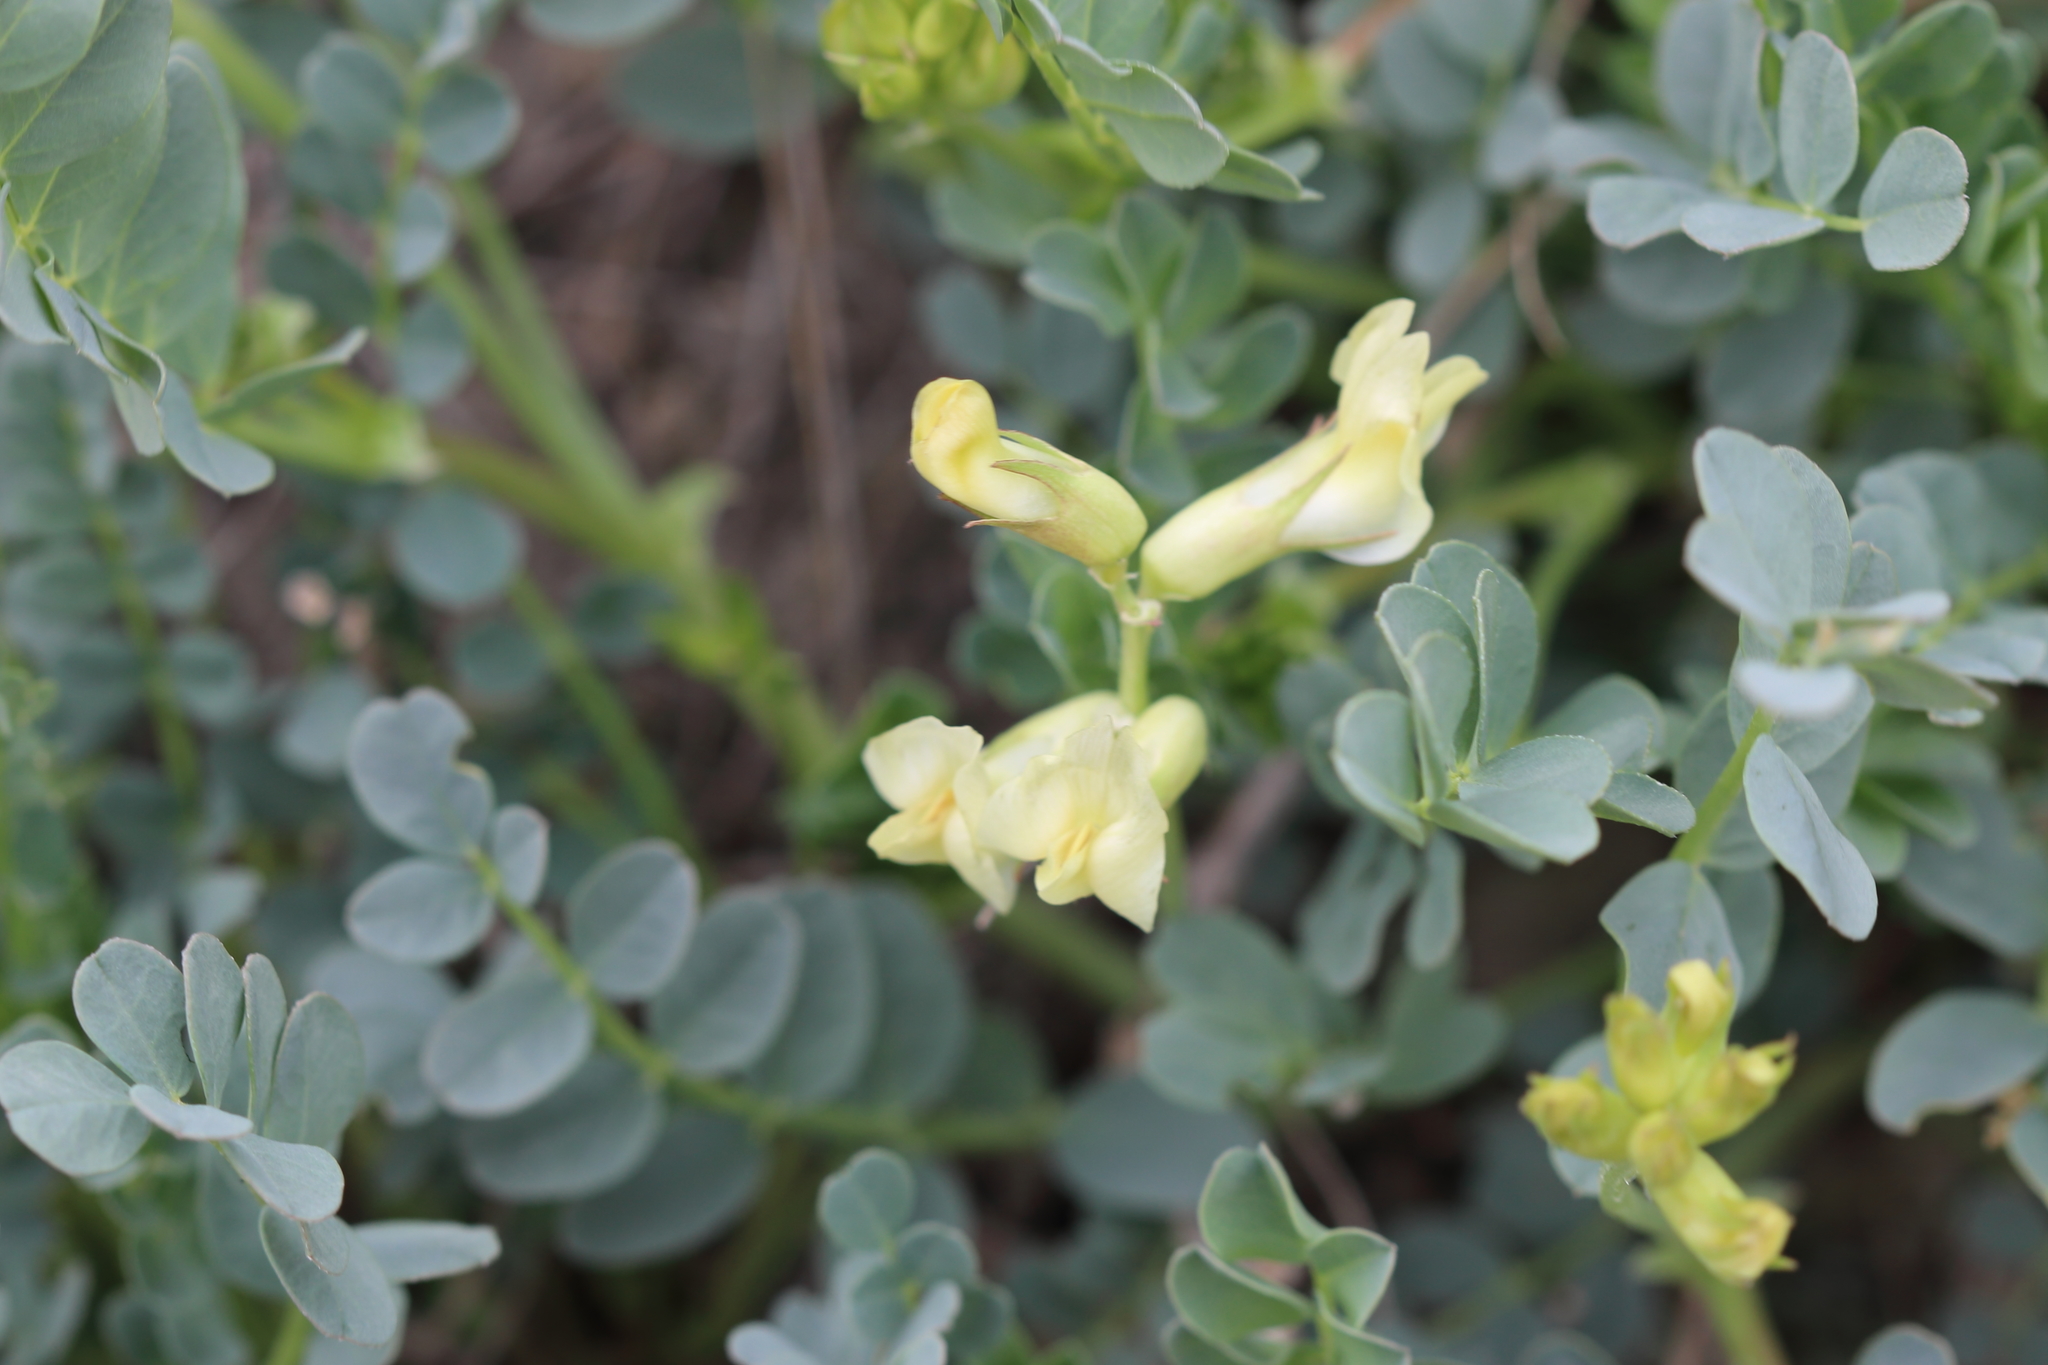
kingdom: Plantae
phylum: Tracheophyta
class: Magnoliopsida
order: Fabales
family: Fabaceae
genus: Astragalus
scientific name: Astragalus beckwithii
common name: Beckwith's milk-vetch
